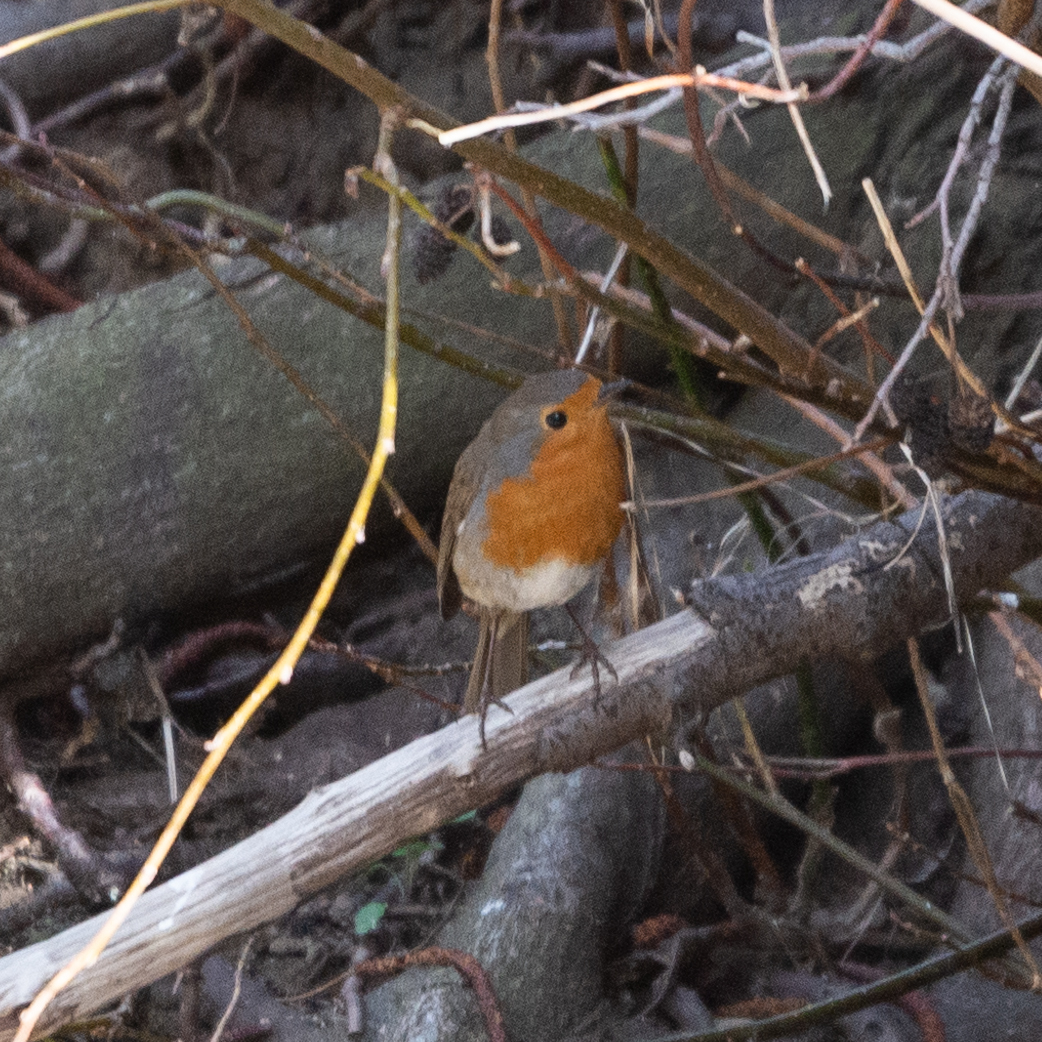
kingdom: Animalia
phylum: Chordata
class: Aves
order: Passeriformes
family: Muscicapidae
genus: Erithacus
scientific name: Erithacus rubecula
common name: European robin
